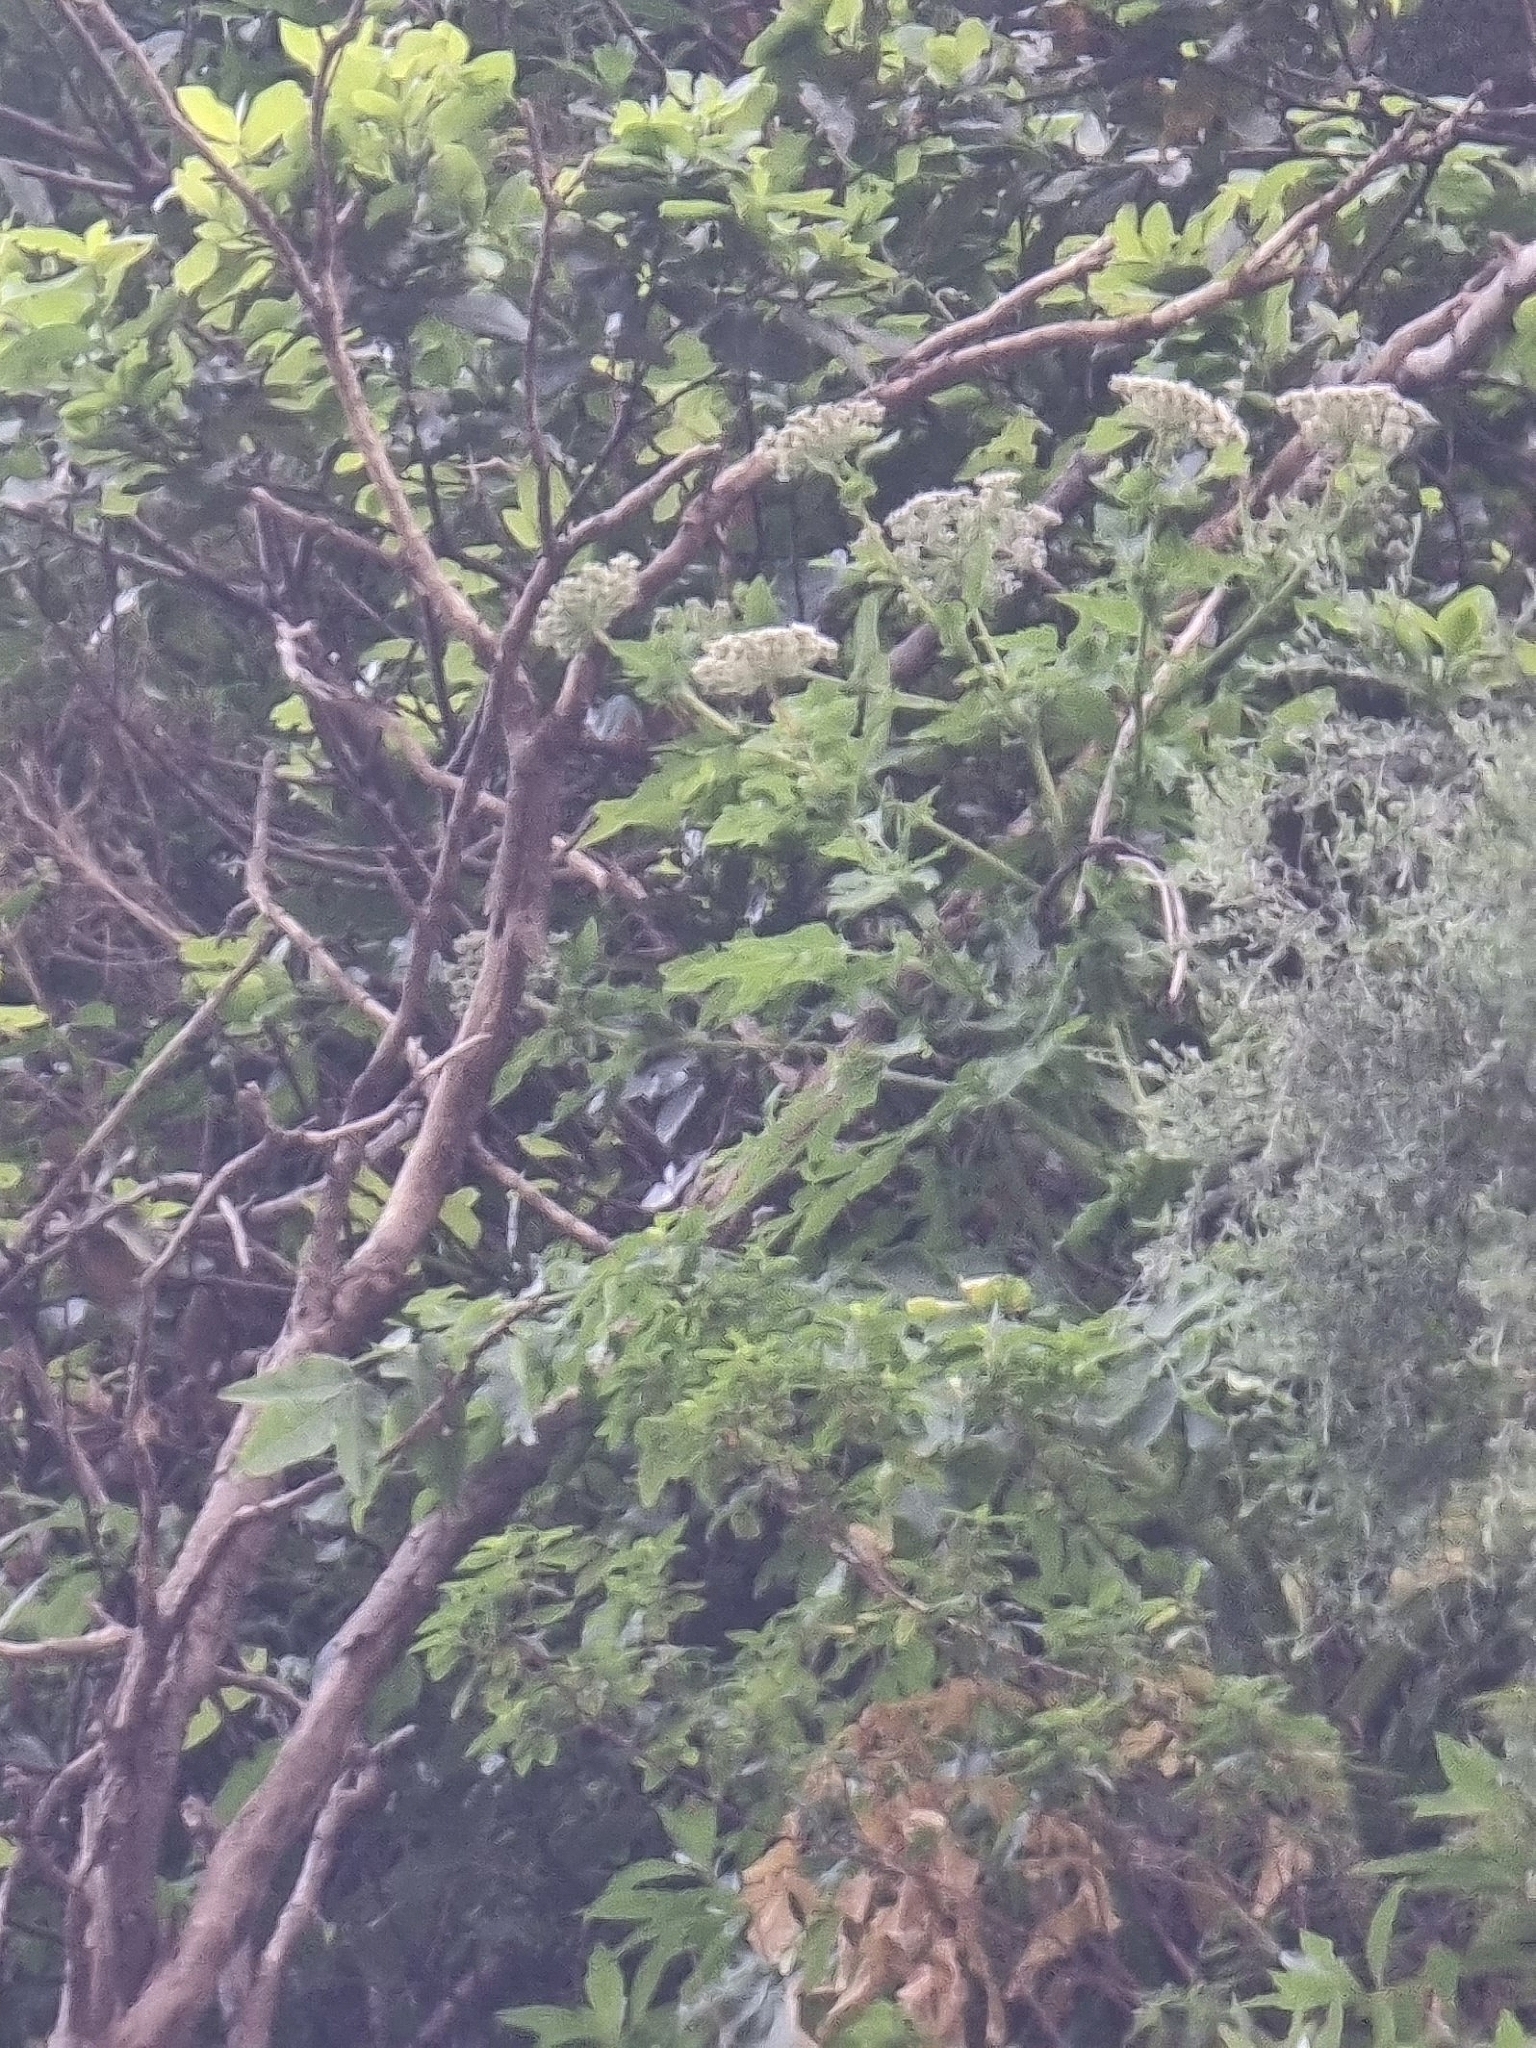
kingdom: Plantae
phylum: Tracheophyta
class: Magnoliopsida
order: Apiales
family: Apiaceae
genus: Daucus
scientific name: Daucus decipiens
